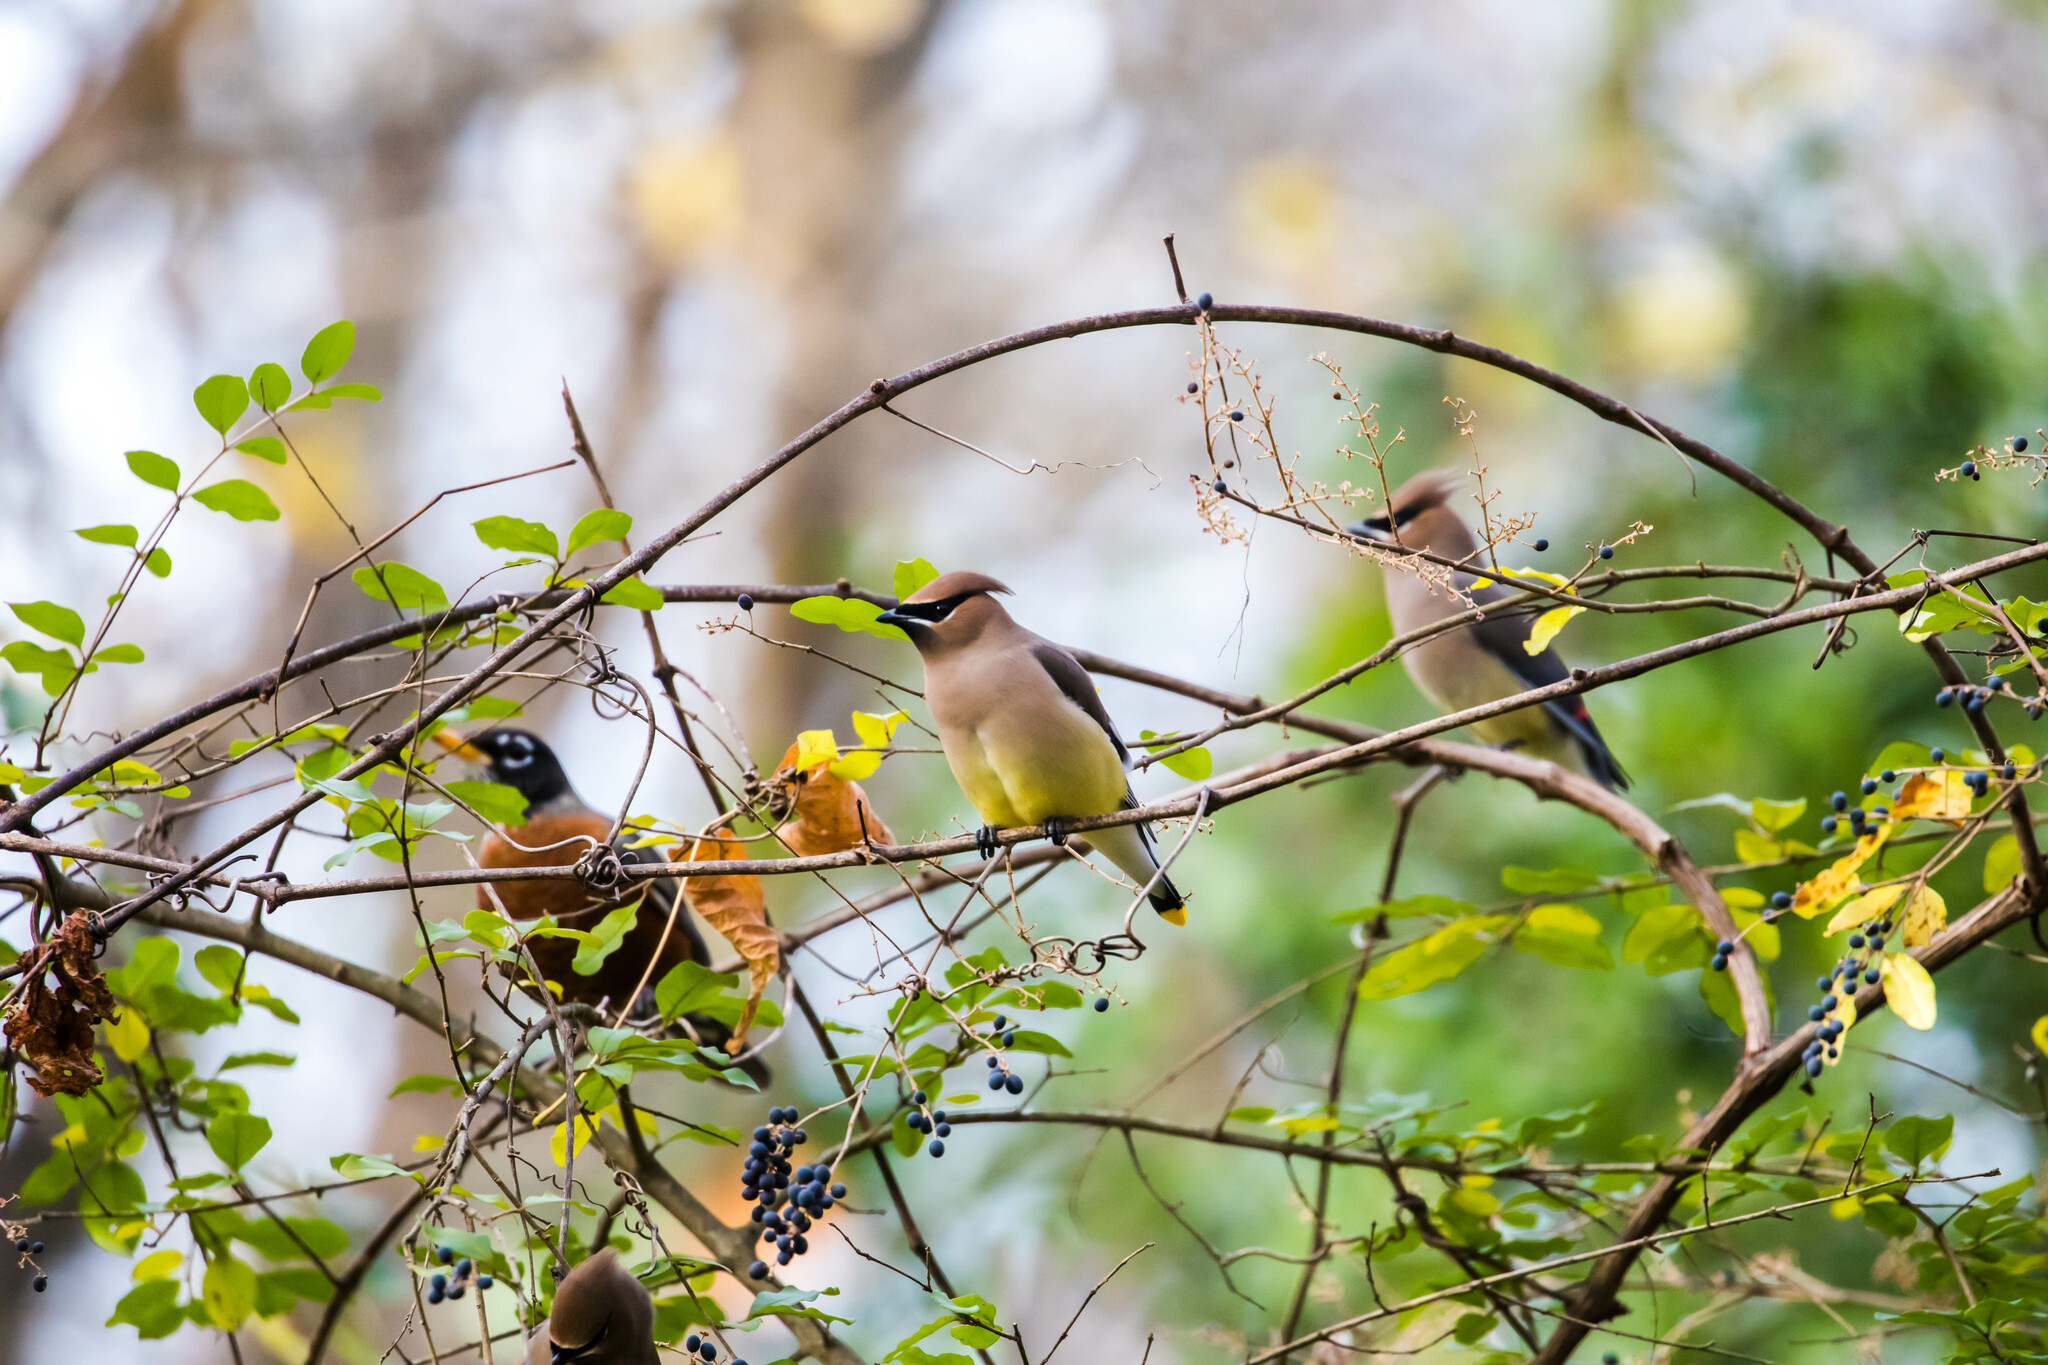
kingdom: Animalia
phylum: Chordata
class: Aves
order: Passeriformes
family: Bombycillidae
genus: Bombycilla
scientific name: Bombycilla cedrorum
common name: Cedar waxwing
